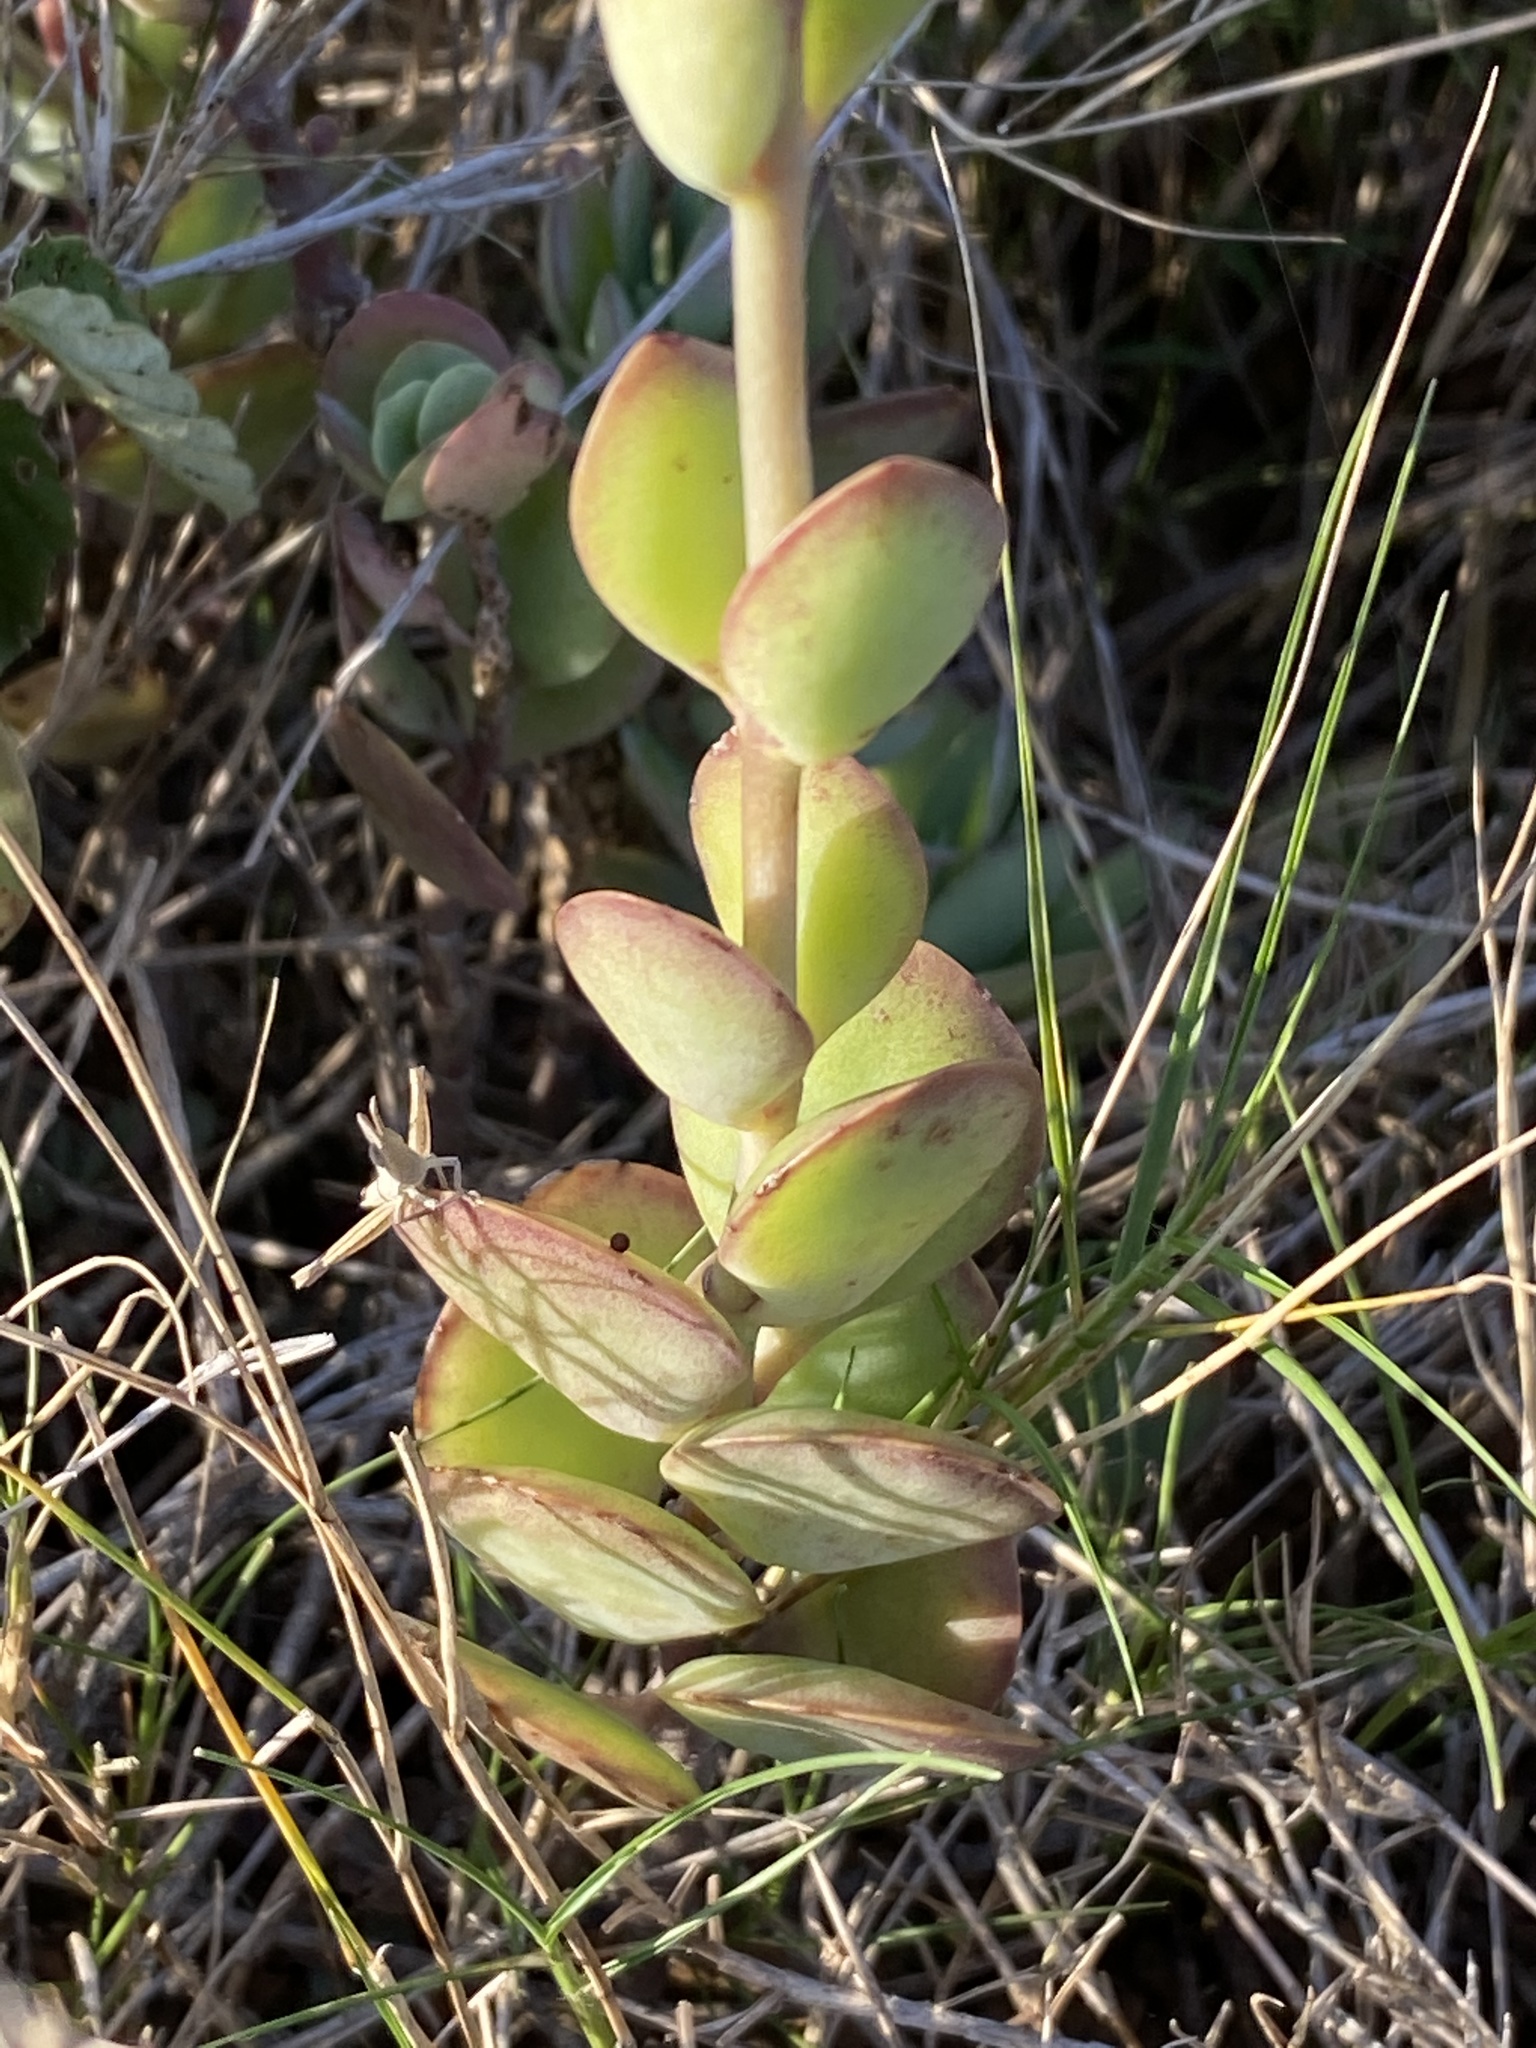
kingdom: Plantae
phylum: Tracheophyta
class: Magnoliopsida
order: Saxifragales
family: Crassulaceae
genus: Kalanchoe
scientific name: Kalanchoe rotundifolia
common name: Common kalanchoe
